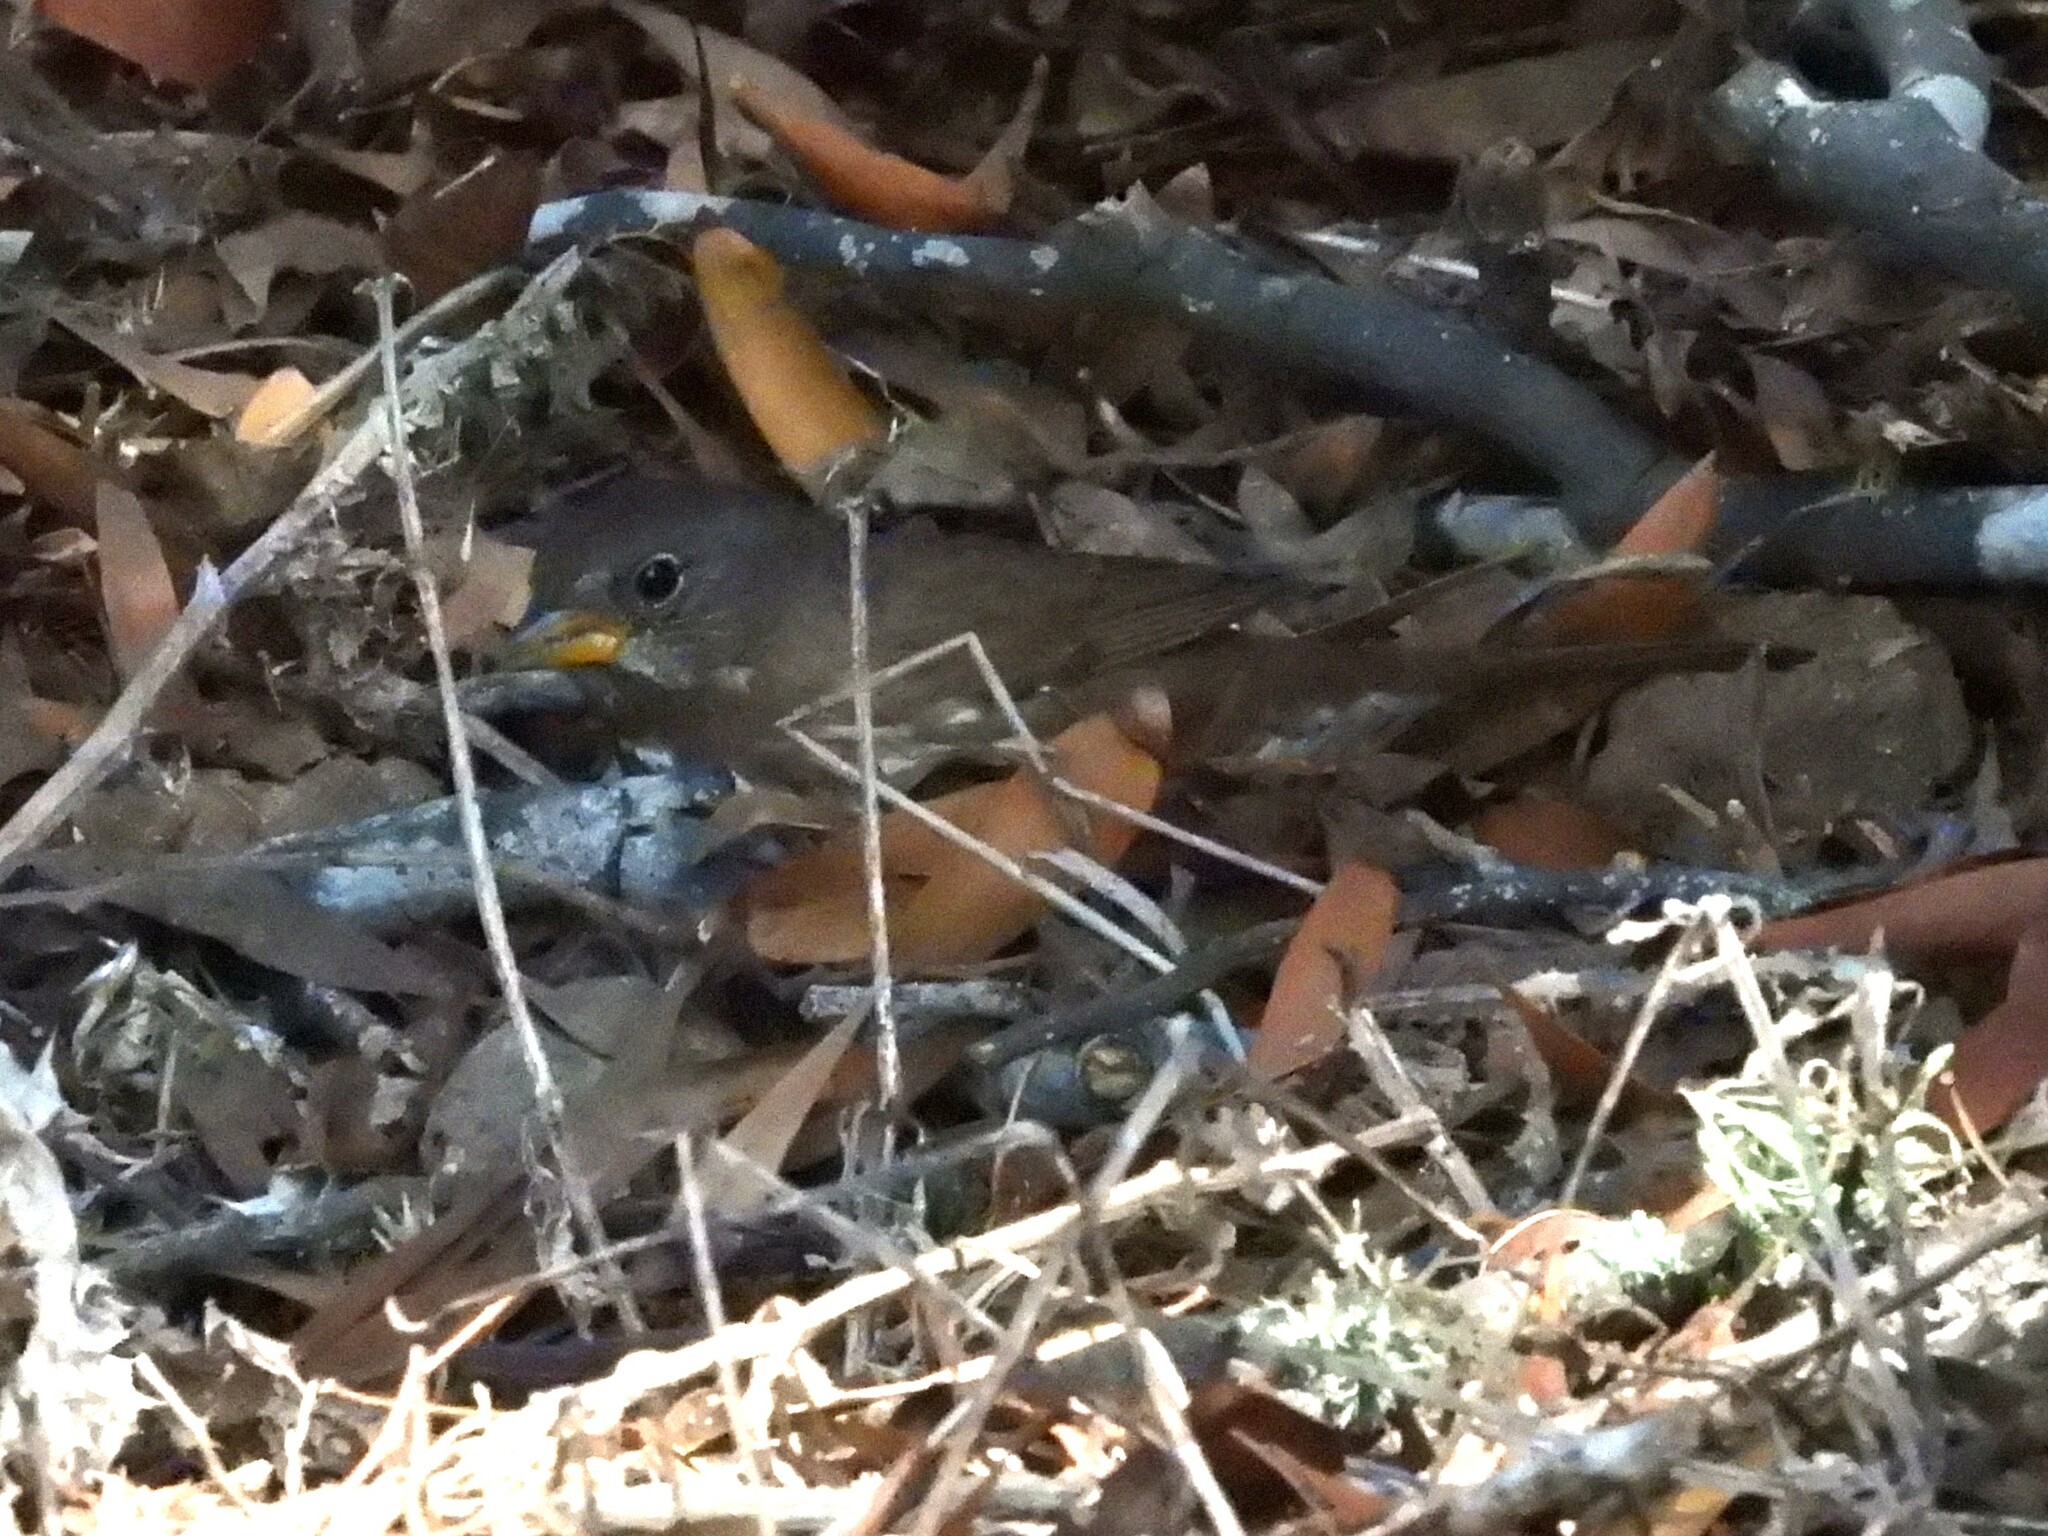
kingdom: Animalia
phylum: Chordata
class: Aves
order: Passeriformes
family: Passerellidae
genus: Passerella
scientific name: Passerella iliaca
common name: Fox sparrow
